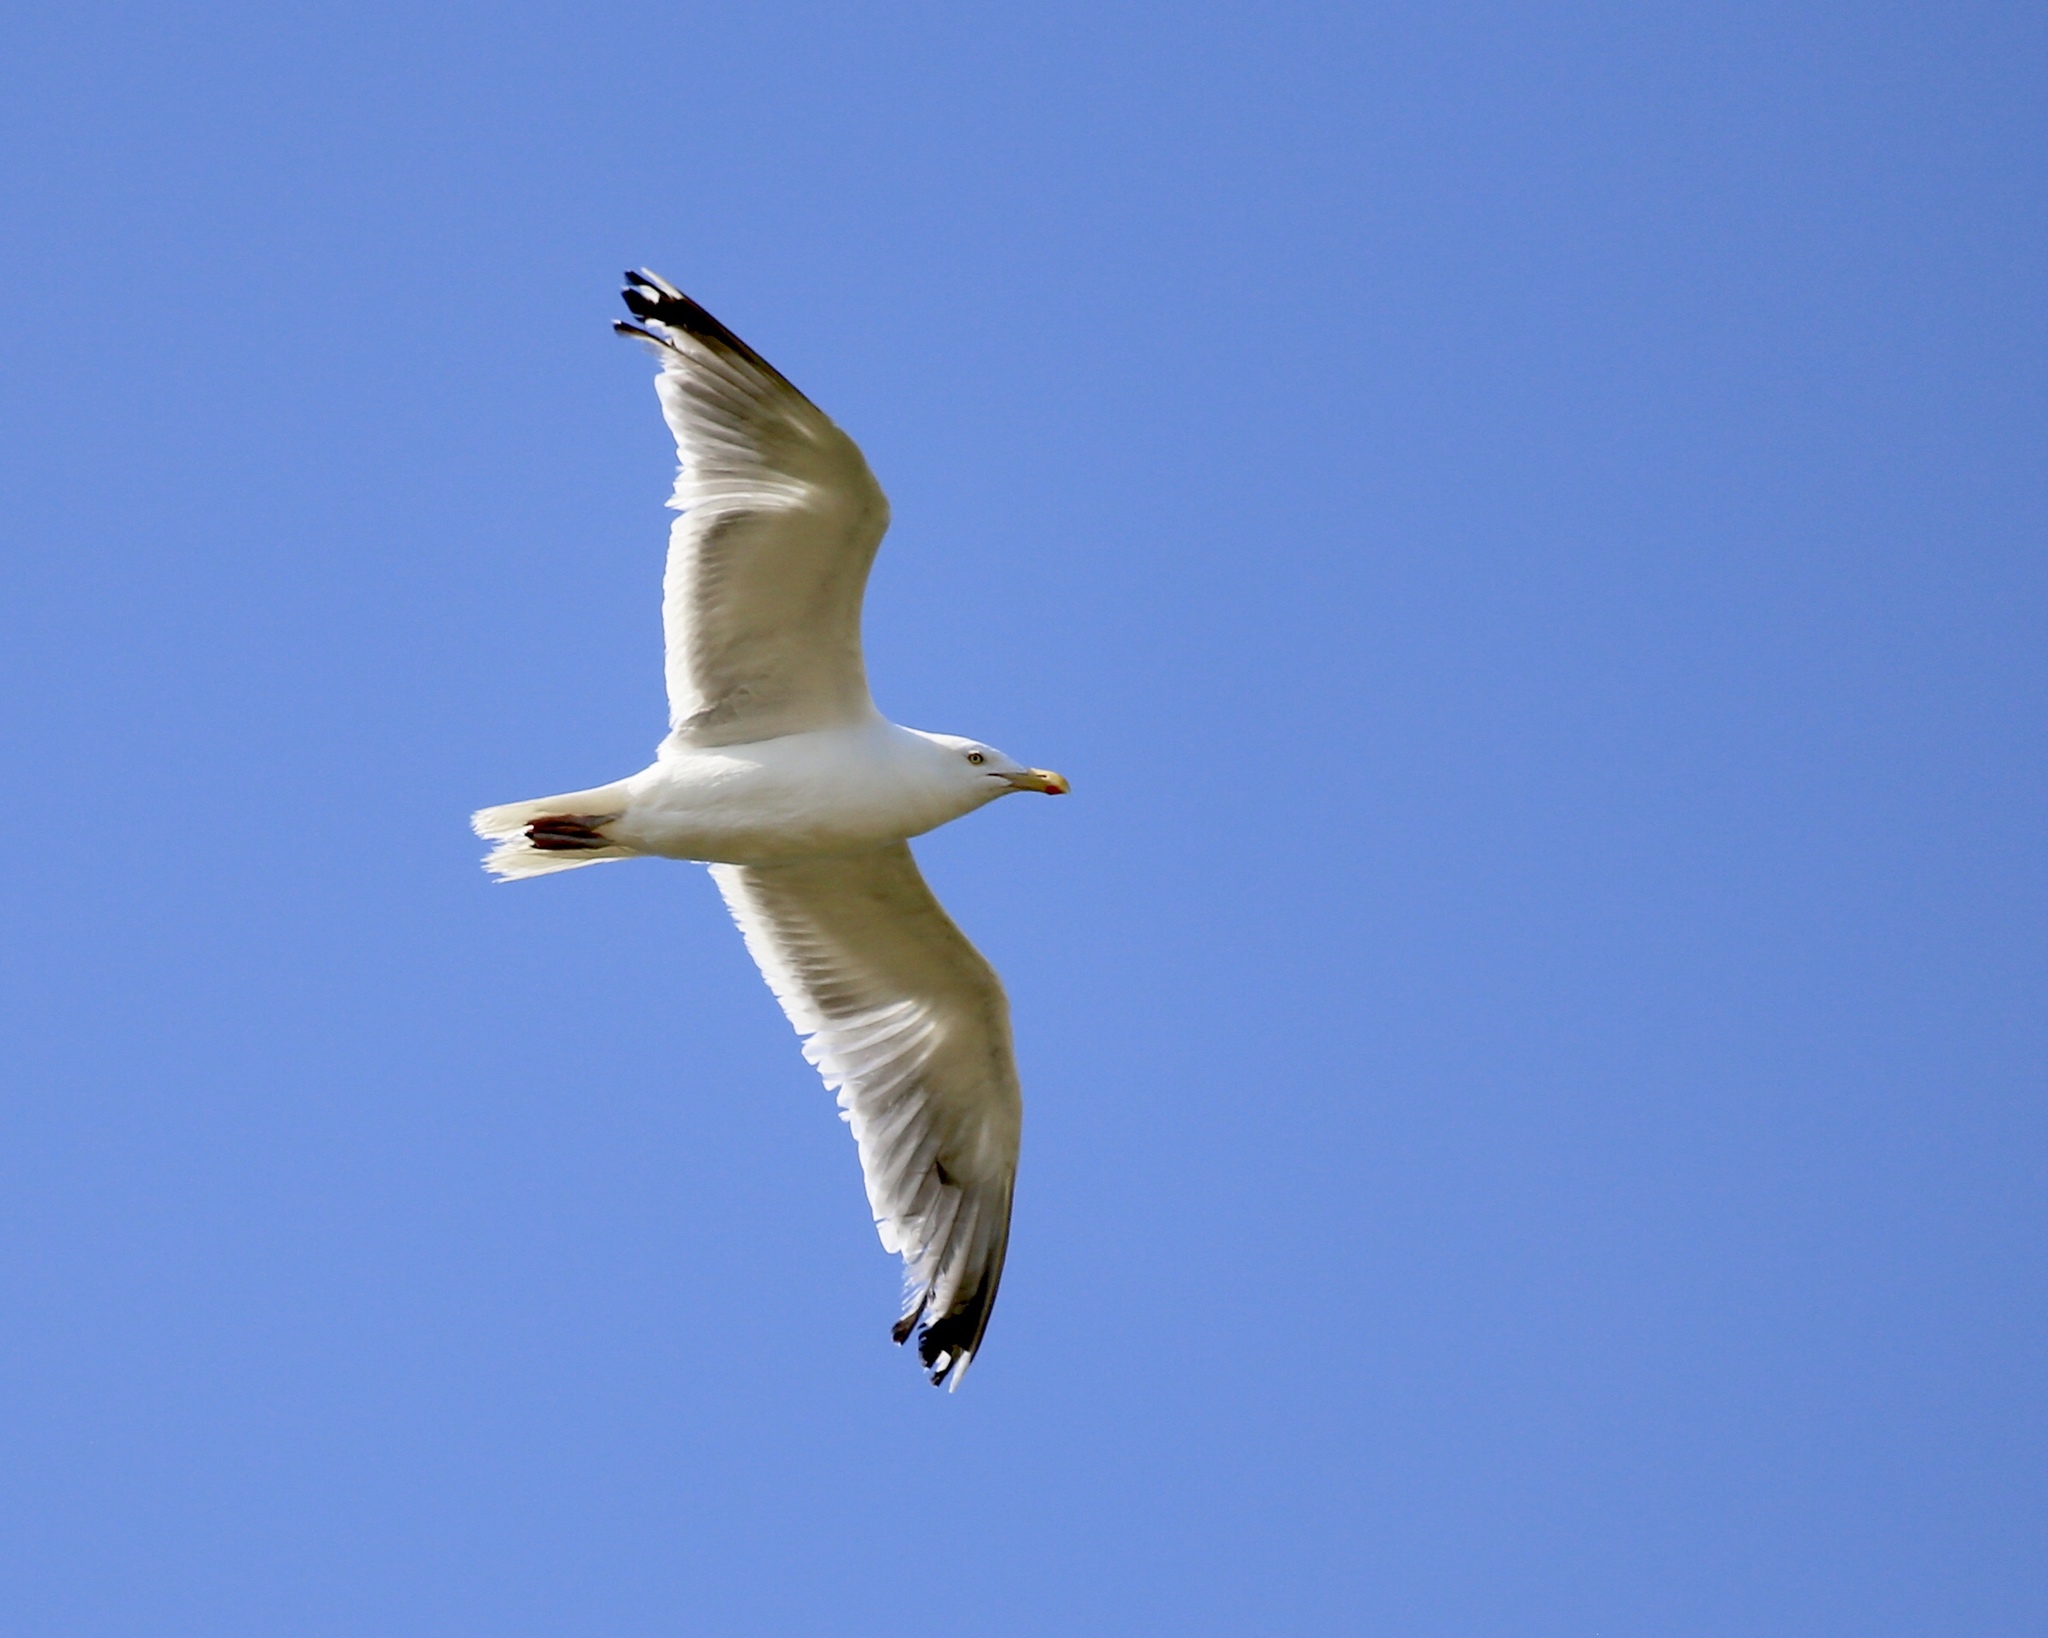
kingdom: Animalia
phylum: Chordata
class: Aves
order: Charadriiformes
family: Laridae
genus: Larus
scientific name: Larus argentatus
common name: Herring gull
